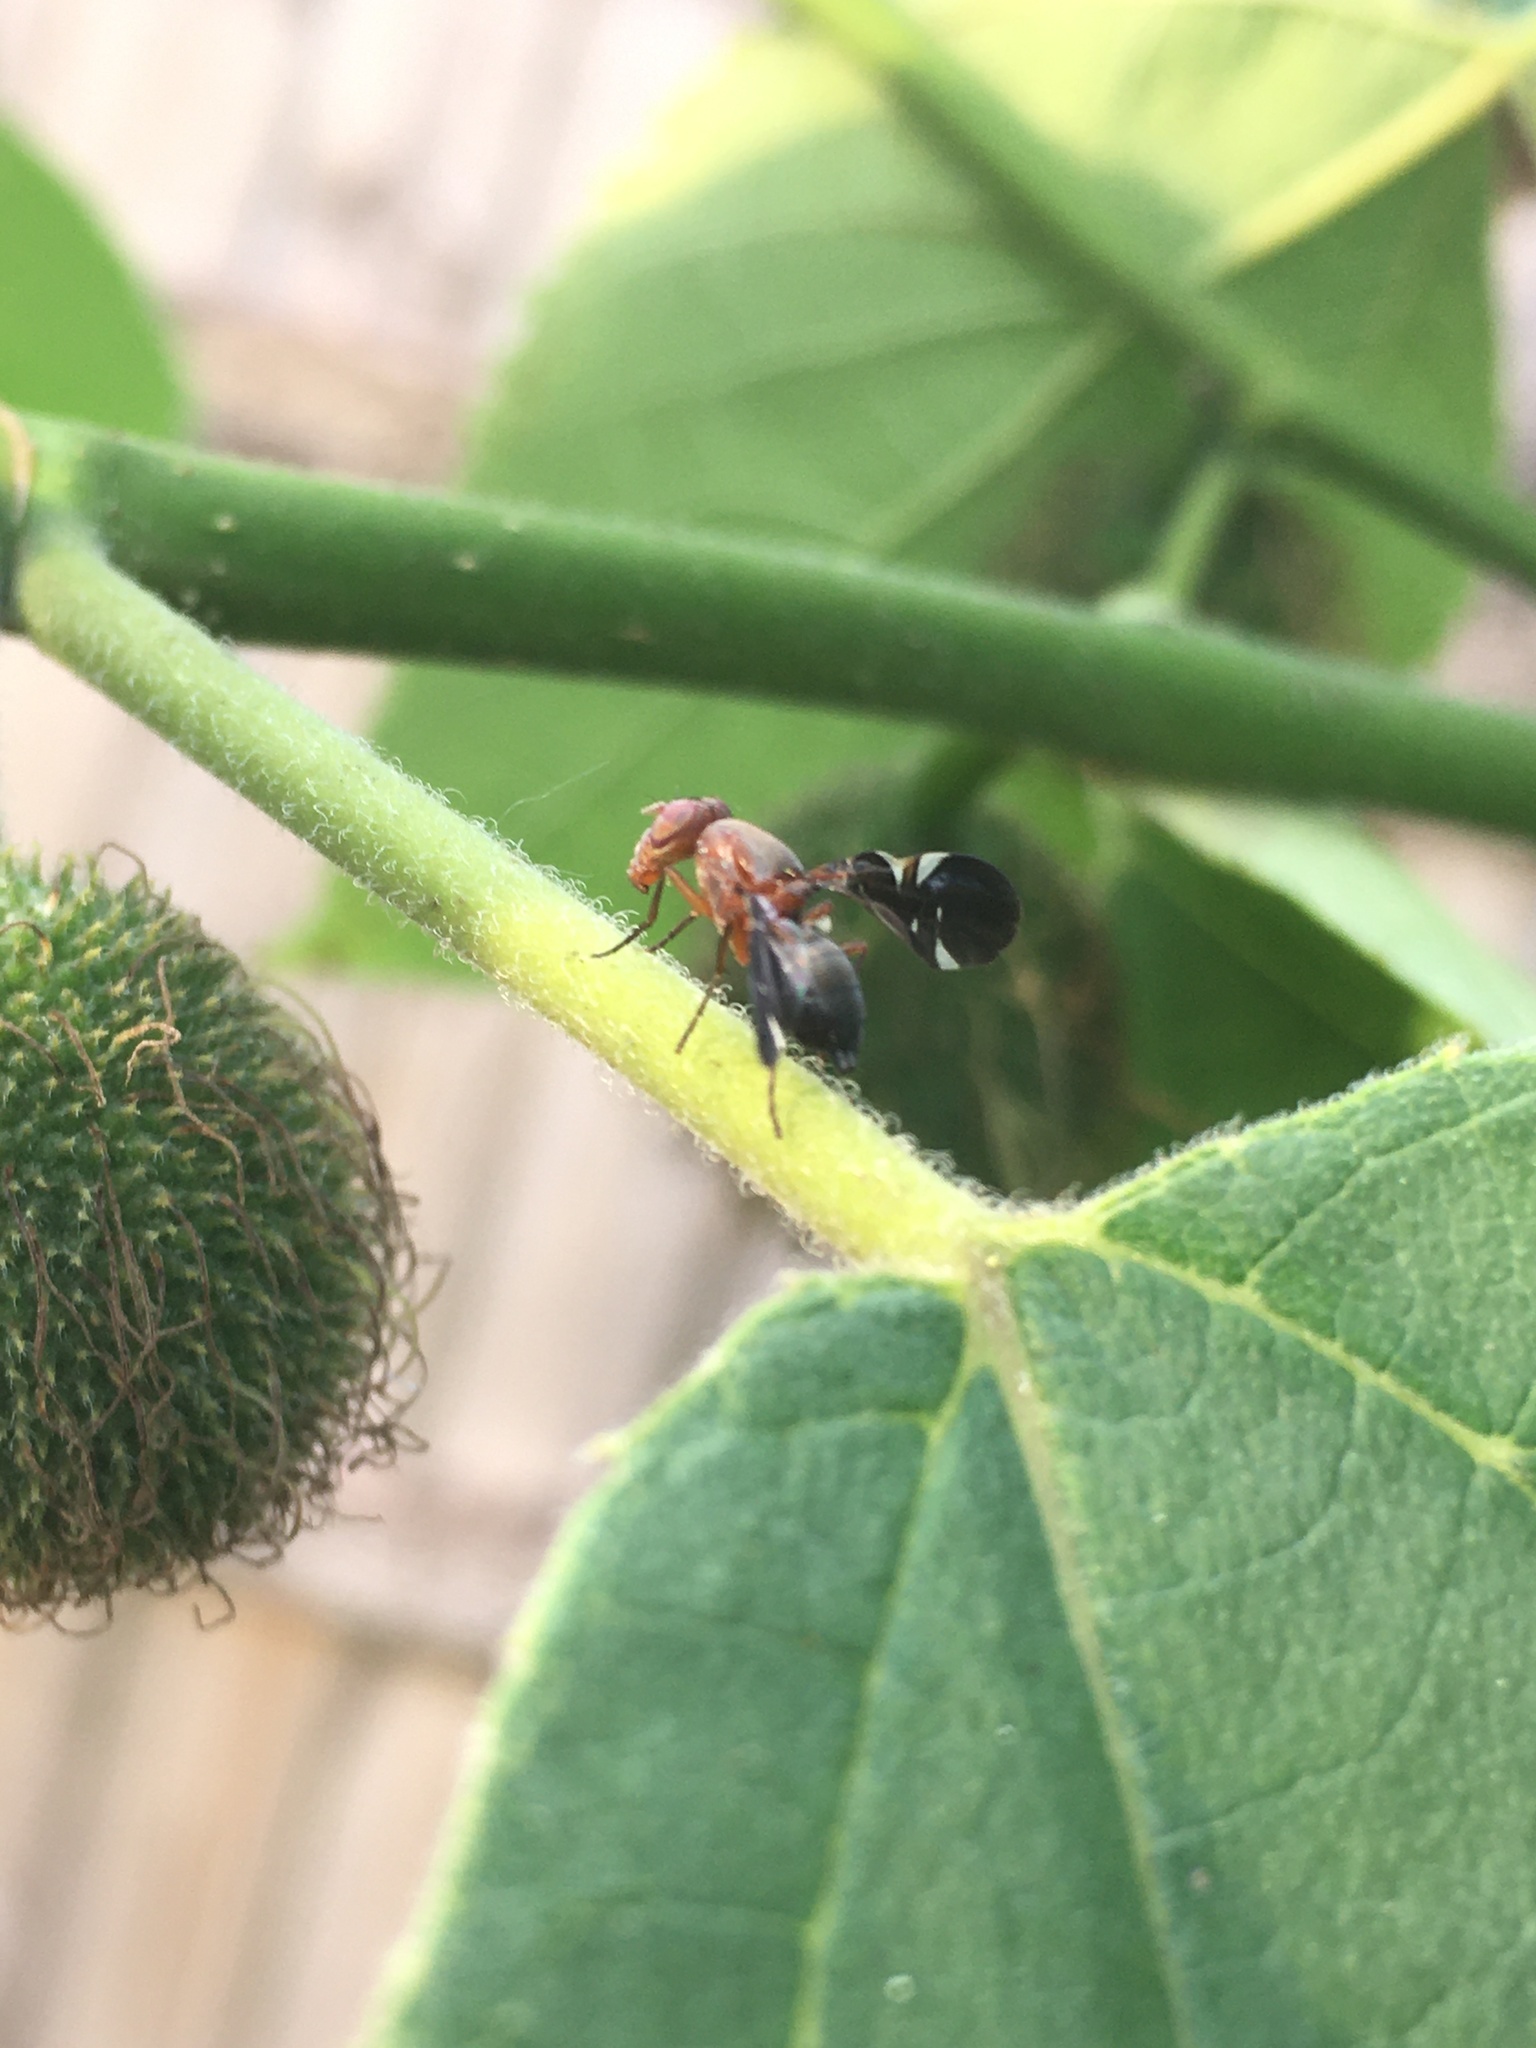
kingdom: Animalia
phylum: Arthropoda
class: Insecta
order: Diptera
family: Ulidiidae
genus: Delphinia
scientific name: Delphinia picta
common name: Common picture-winged fly
